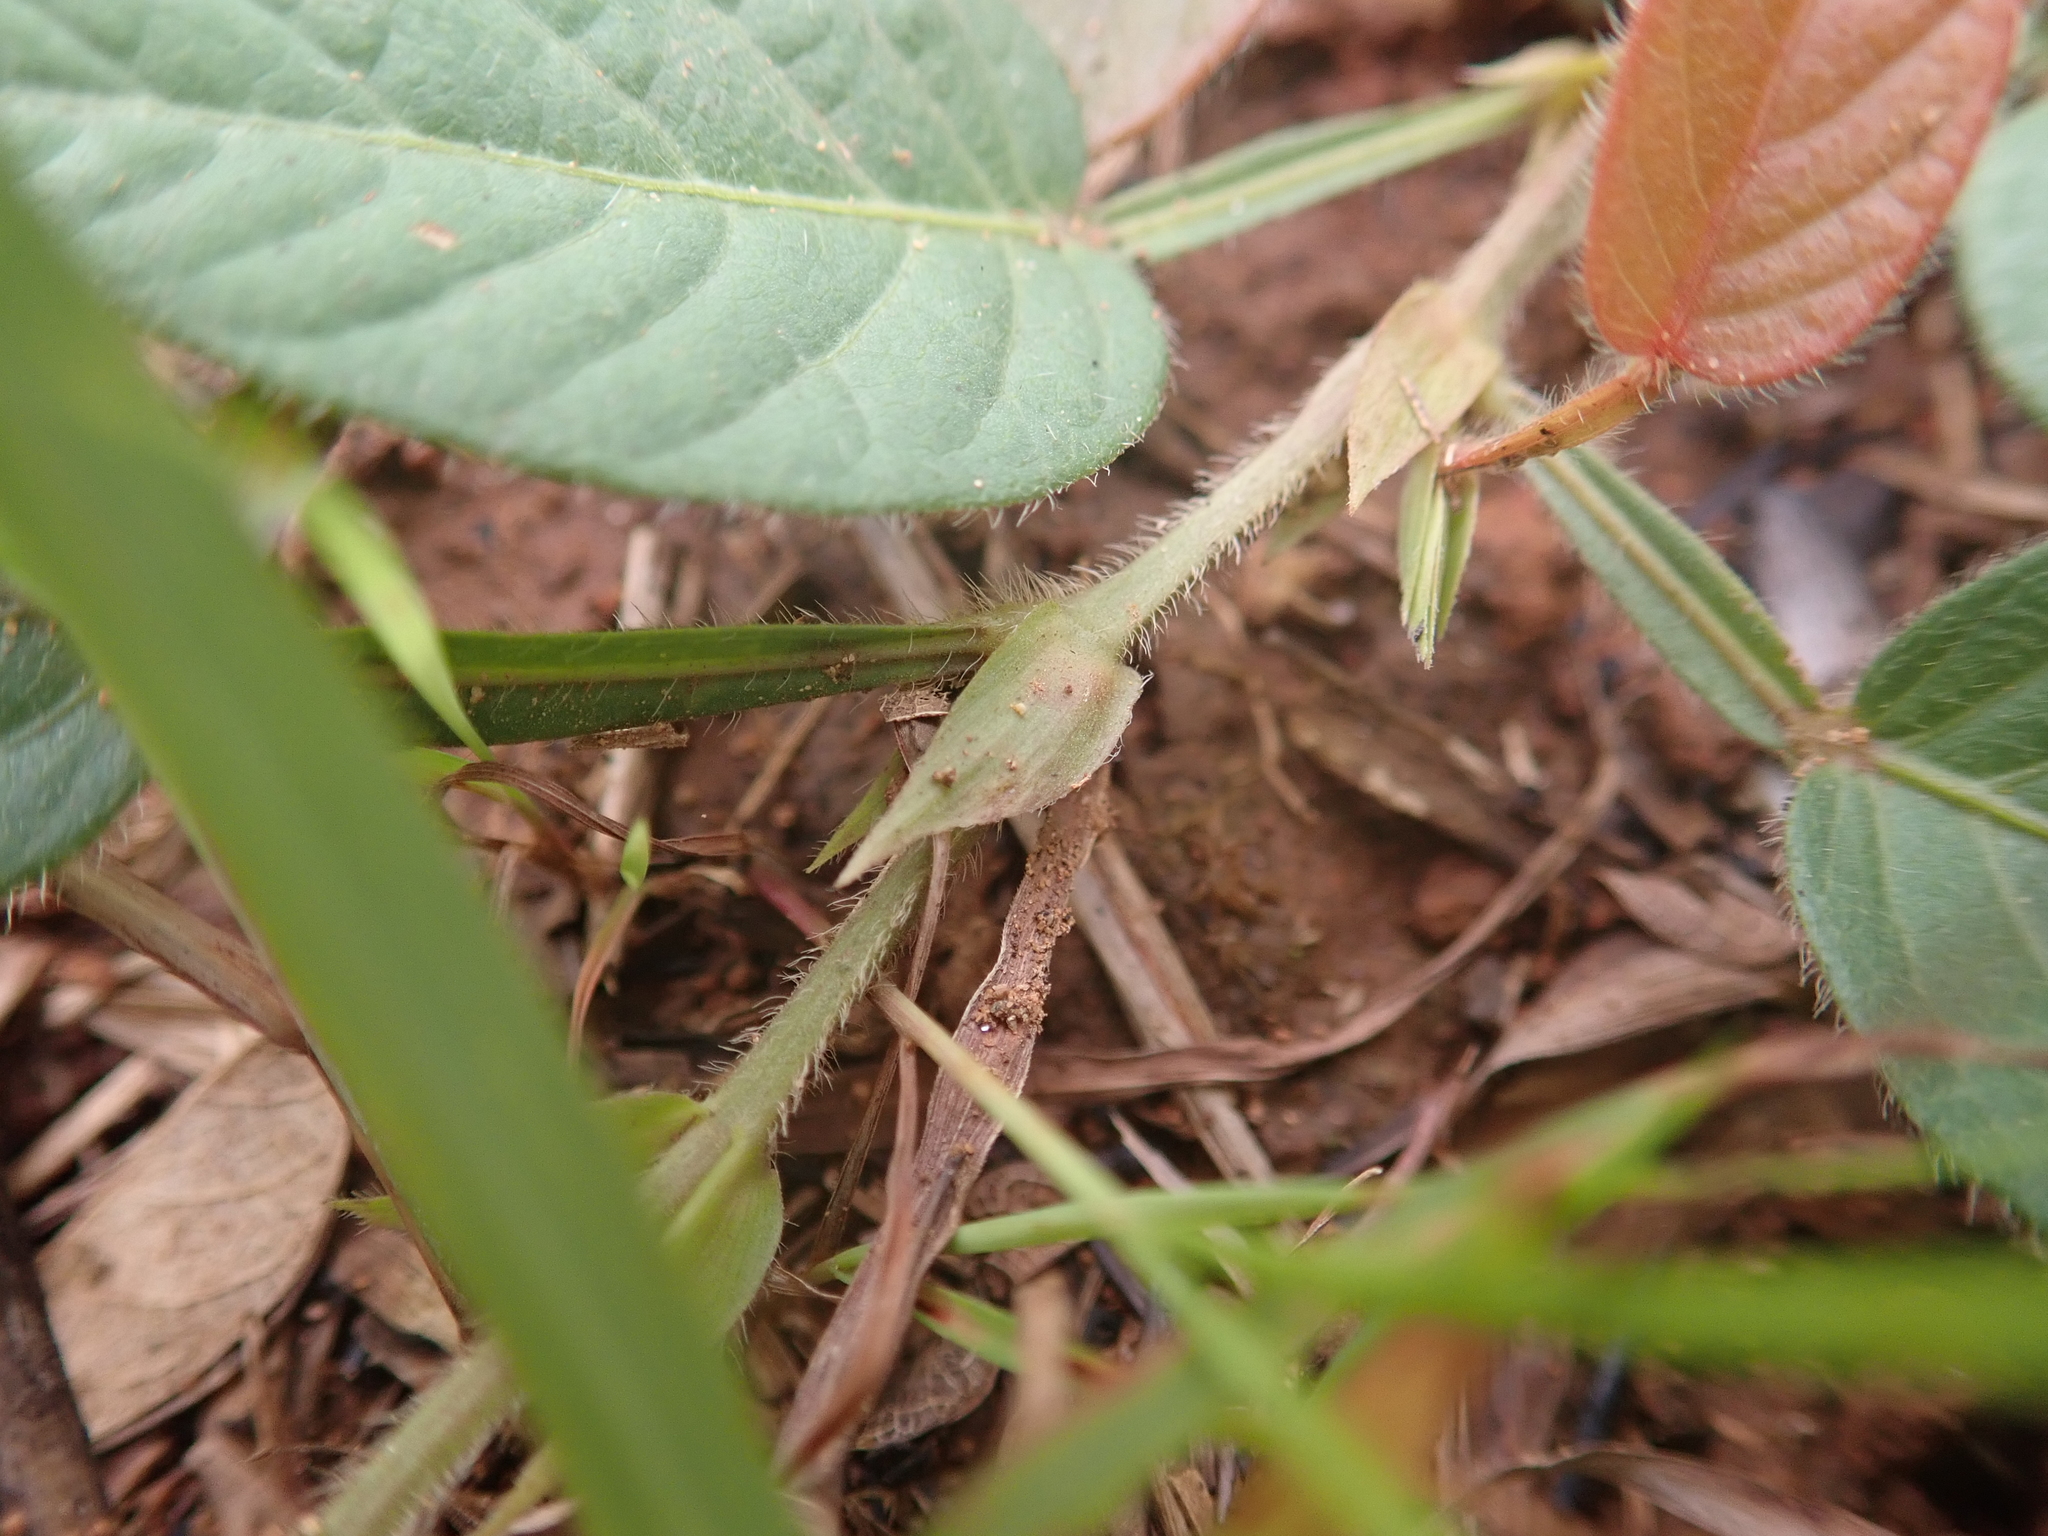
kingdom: Plantae
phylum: Tracheophyta
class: Magnoliopsida
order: Fabales
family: Fabaceae
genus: Tadehagi
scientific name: Tadehagi pseudotriquetrum
